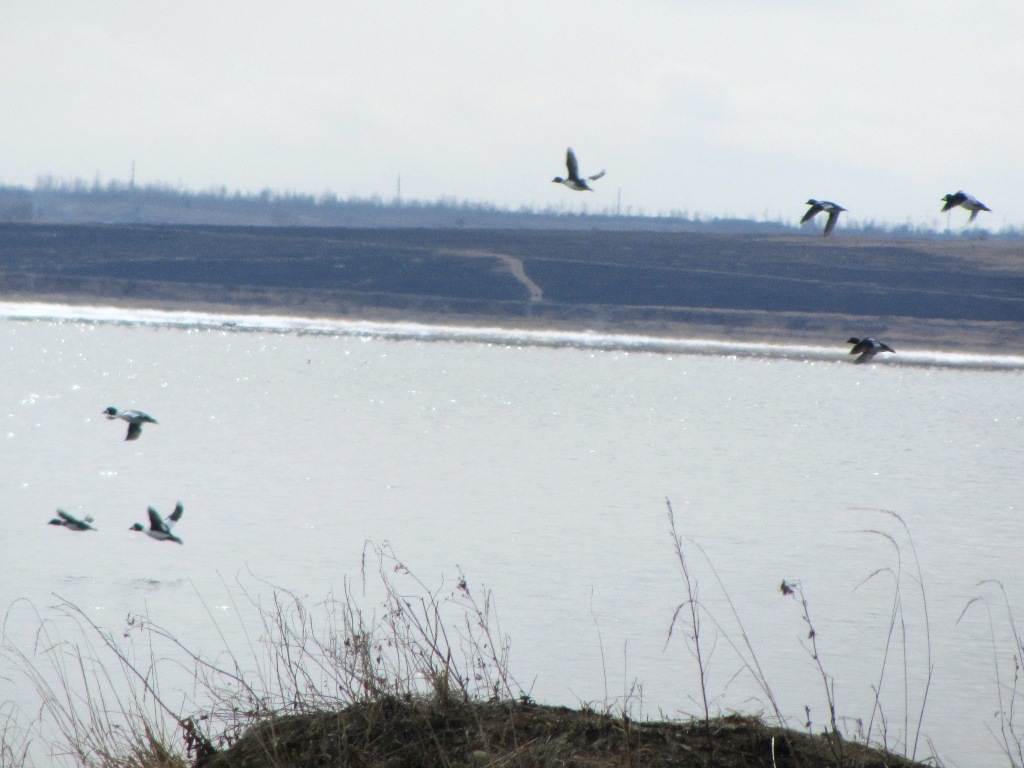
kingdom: Animalia
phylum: Chordata
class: Aves
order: Anseriformes
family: Anatidae
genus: Bucephala
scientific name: Bucephala clangula
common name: Common goldeneye
